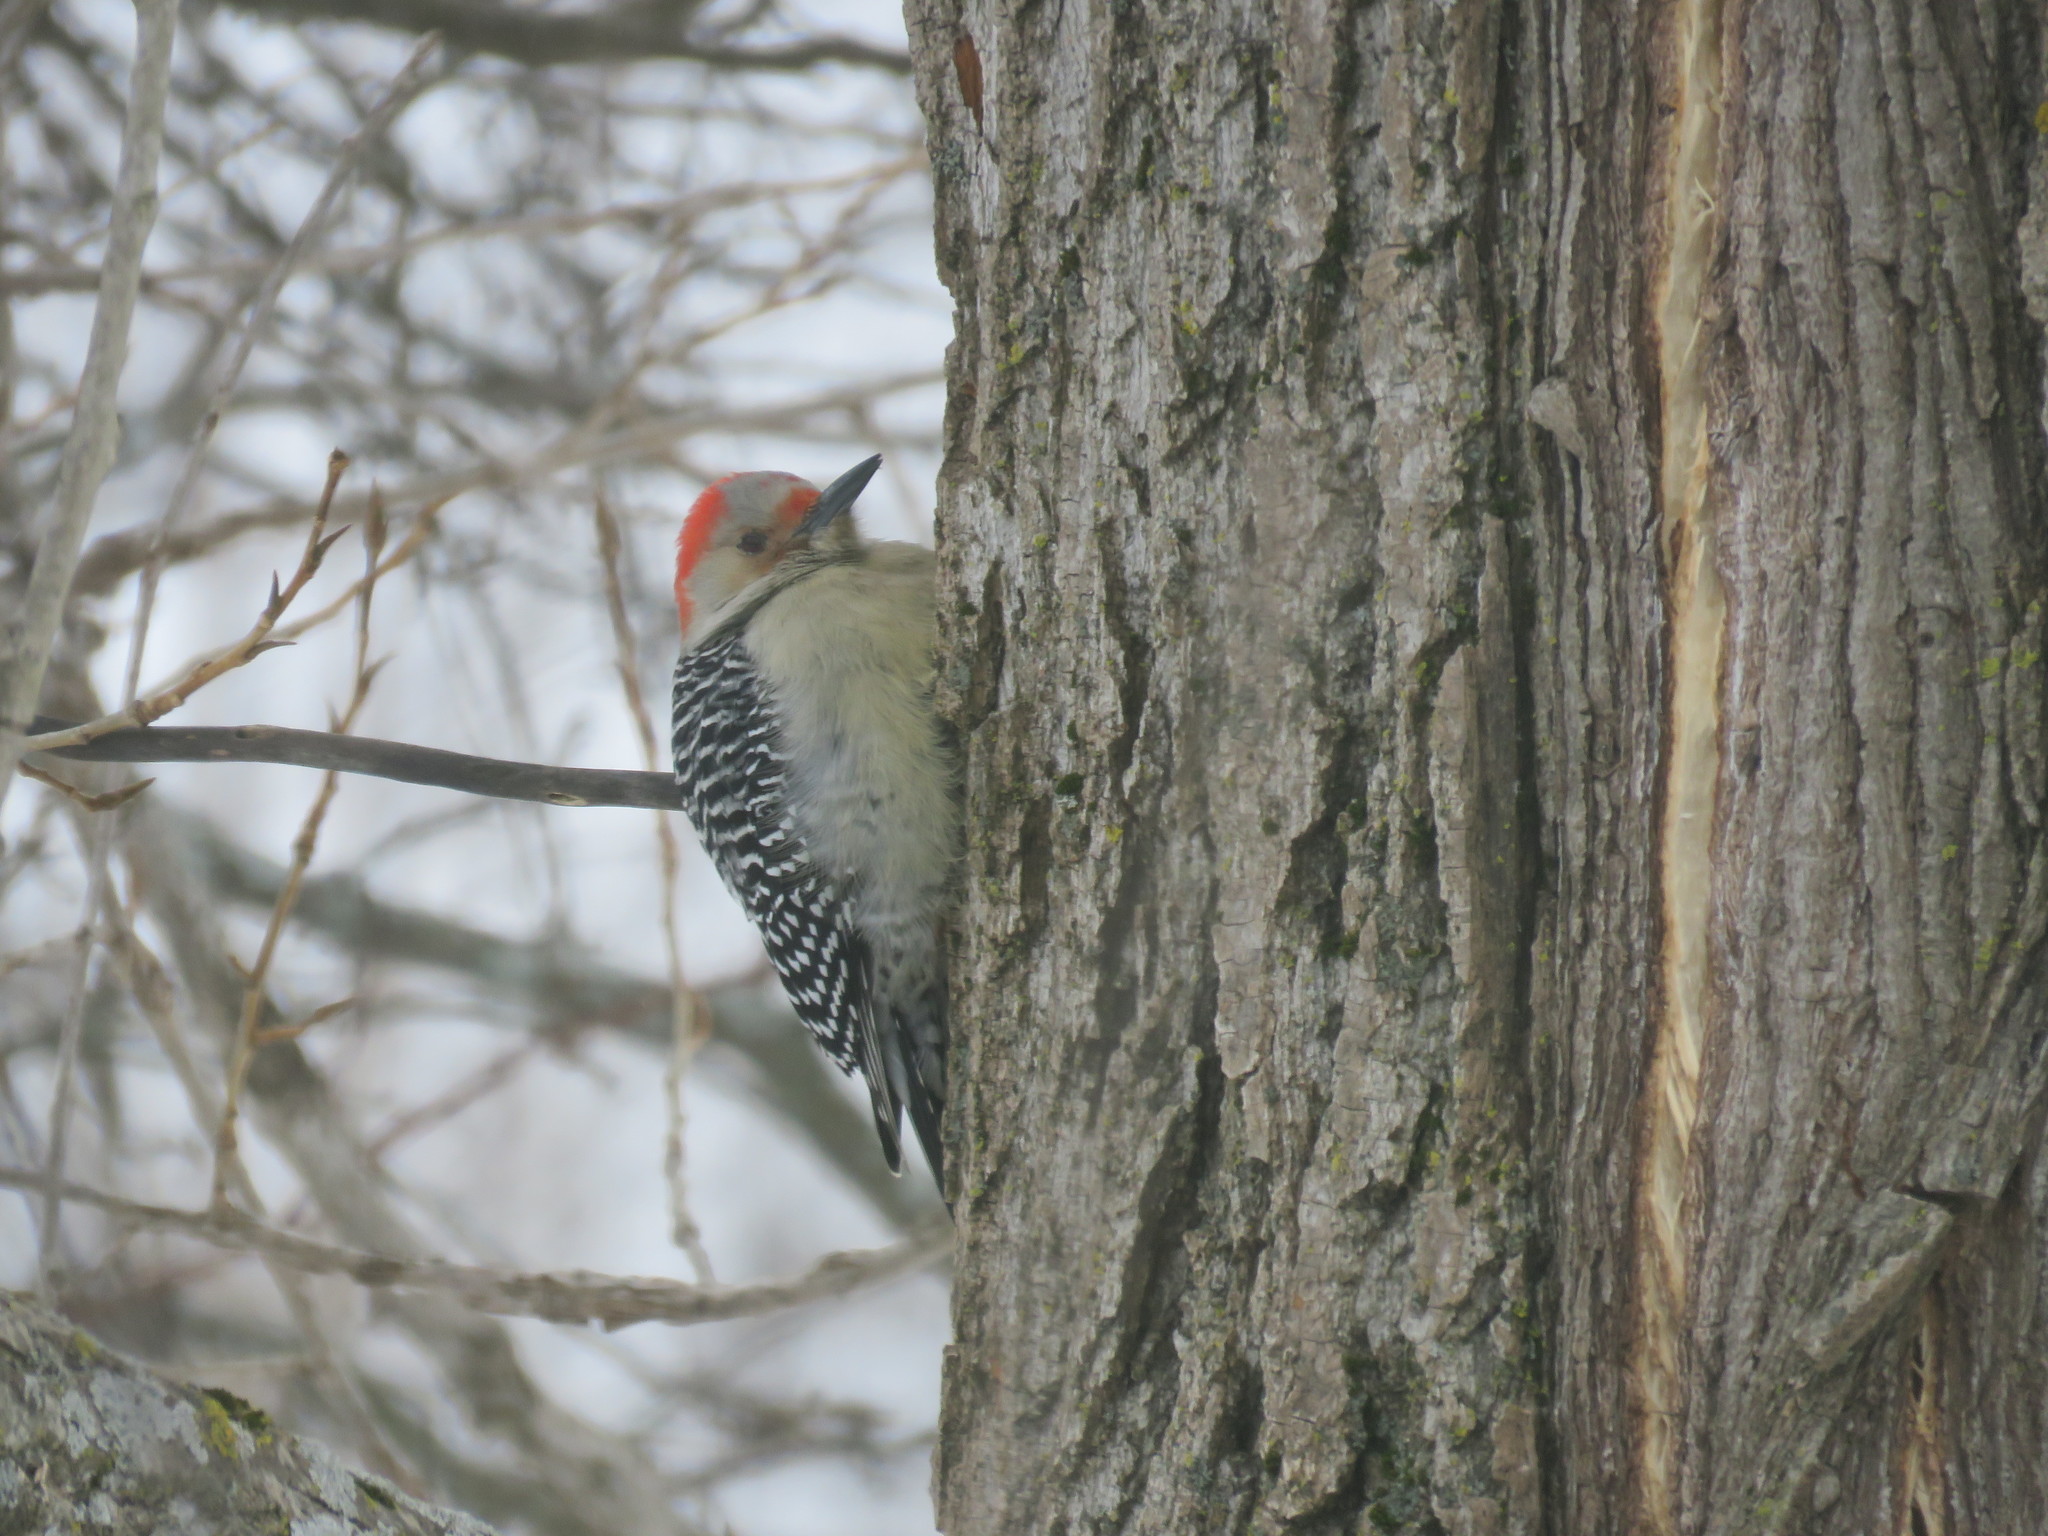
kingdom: Animalia
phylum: Chordata
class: Aves
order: Piciformes
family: Picidae
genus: Melanerpes
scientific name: Melanerpes carolinus
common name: Red-bellied woodpecker
